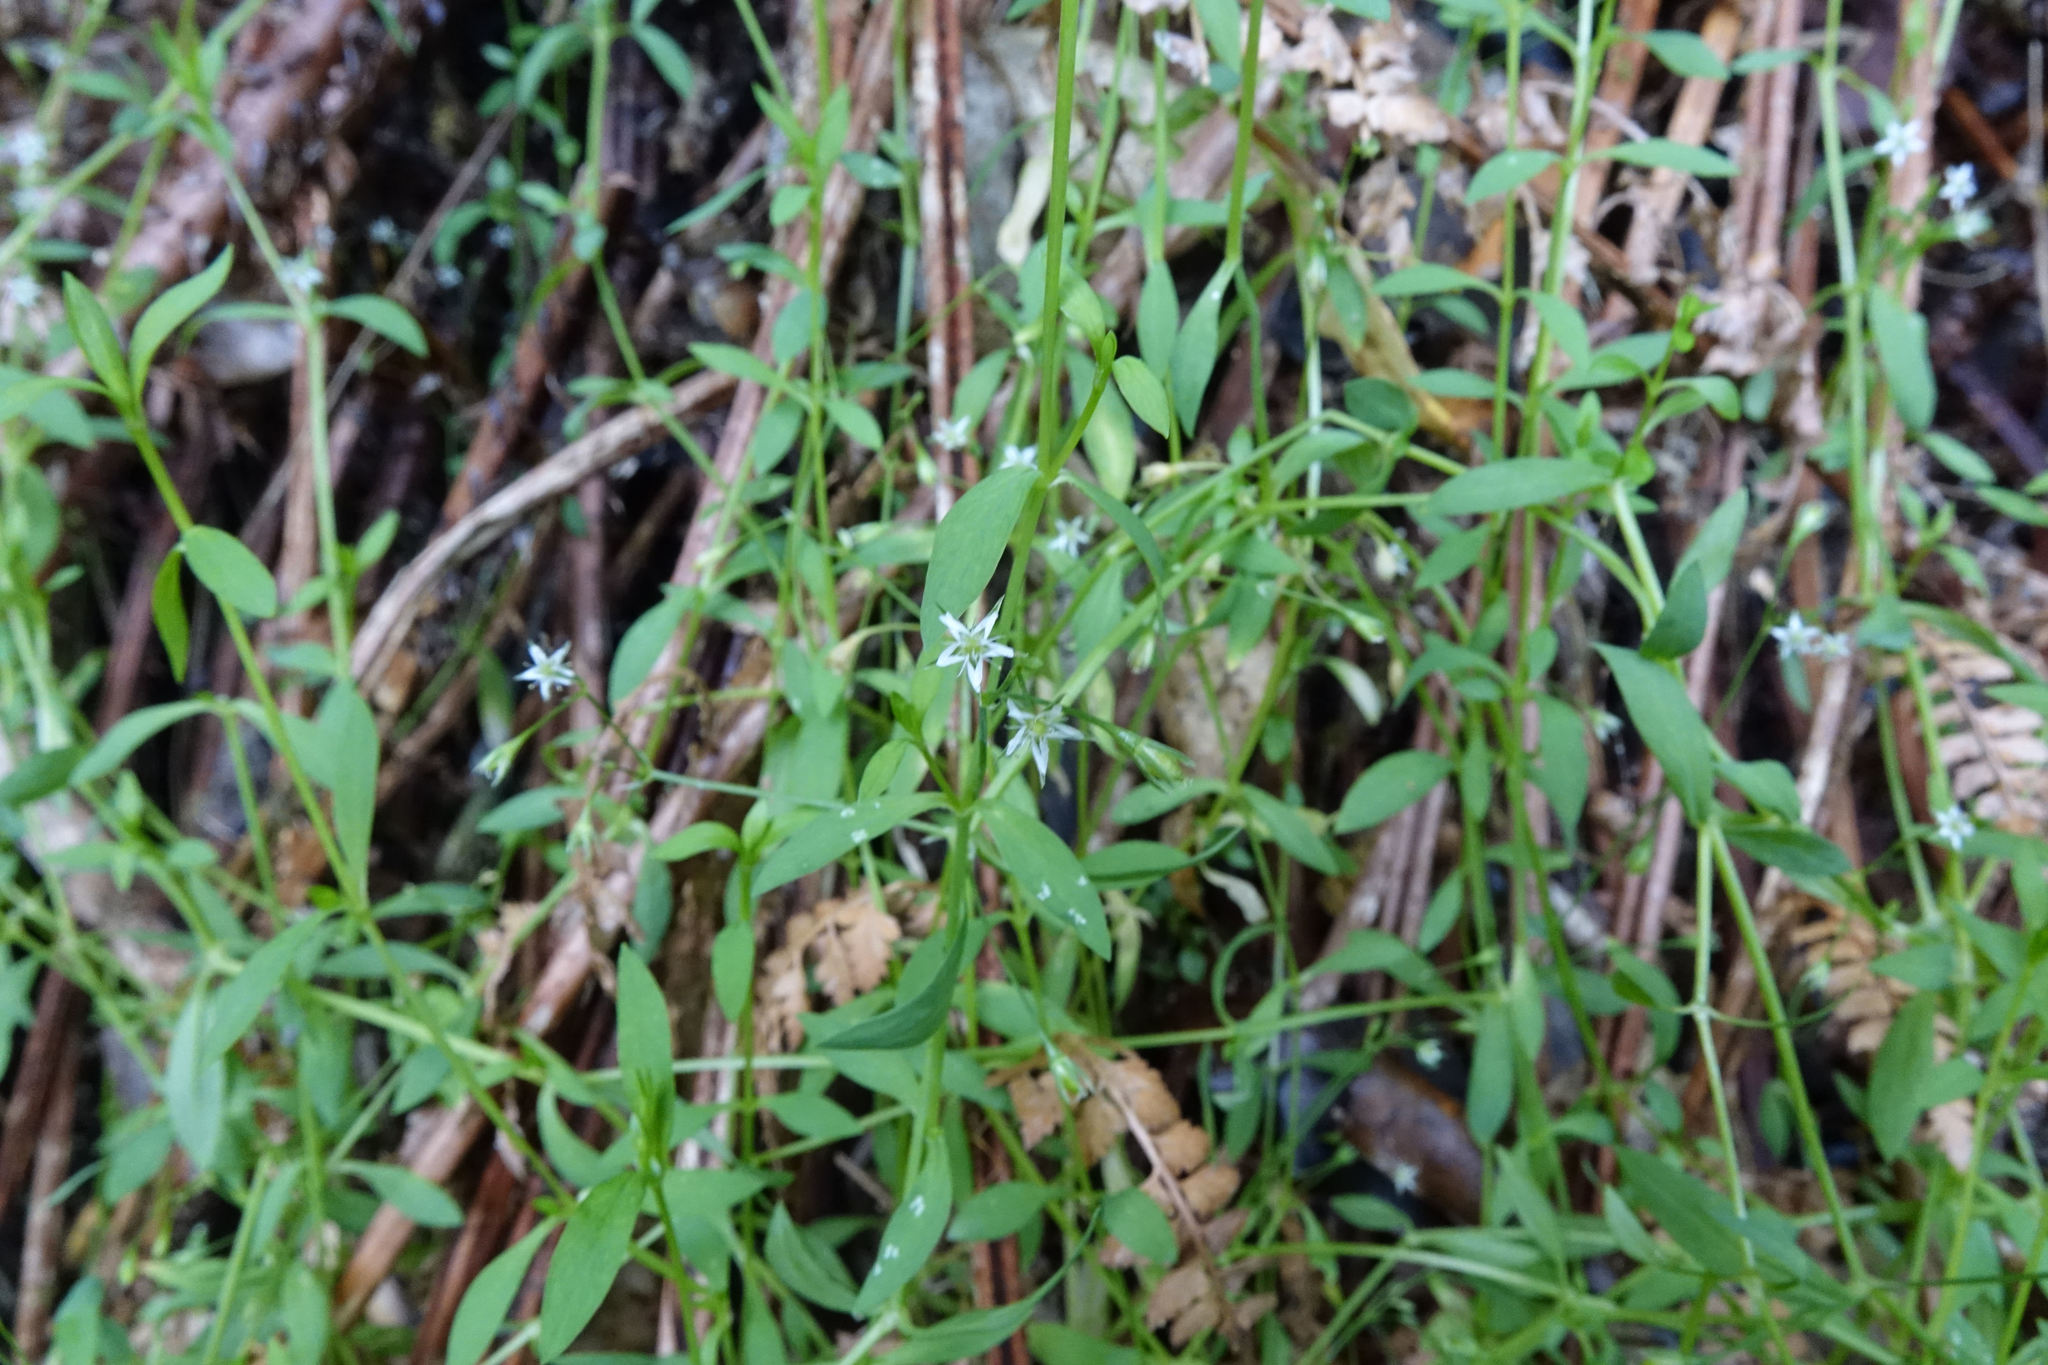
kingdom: Plantae
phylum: Tracheophyta
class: Magnoliopsida
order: Caryophyllales
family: Caryophyllaceae
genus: Stellaria
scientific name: Stellaria alsine
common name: Bog stitchwort
